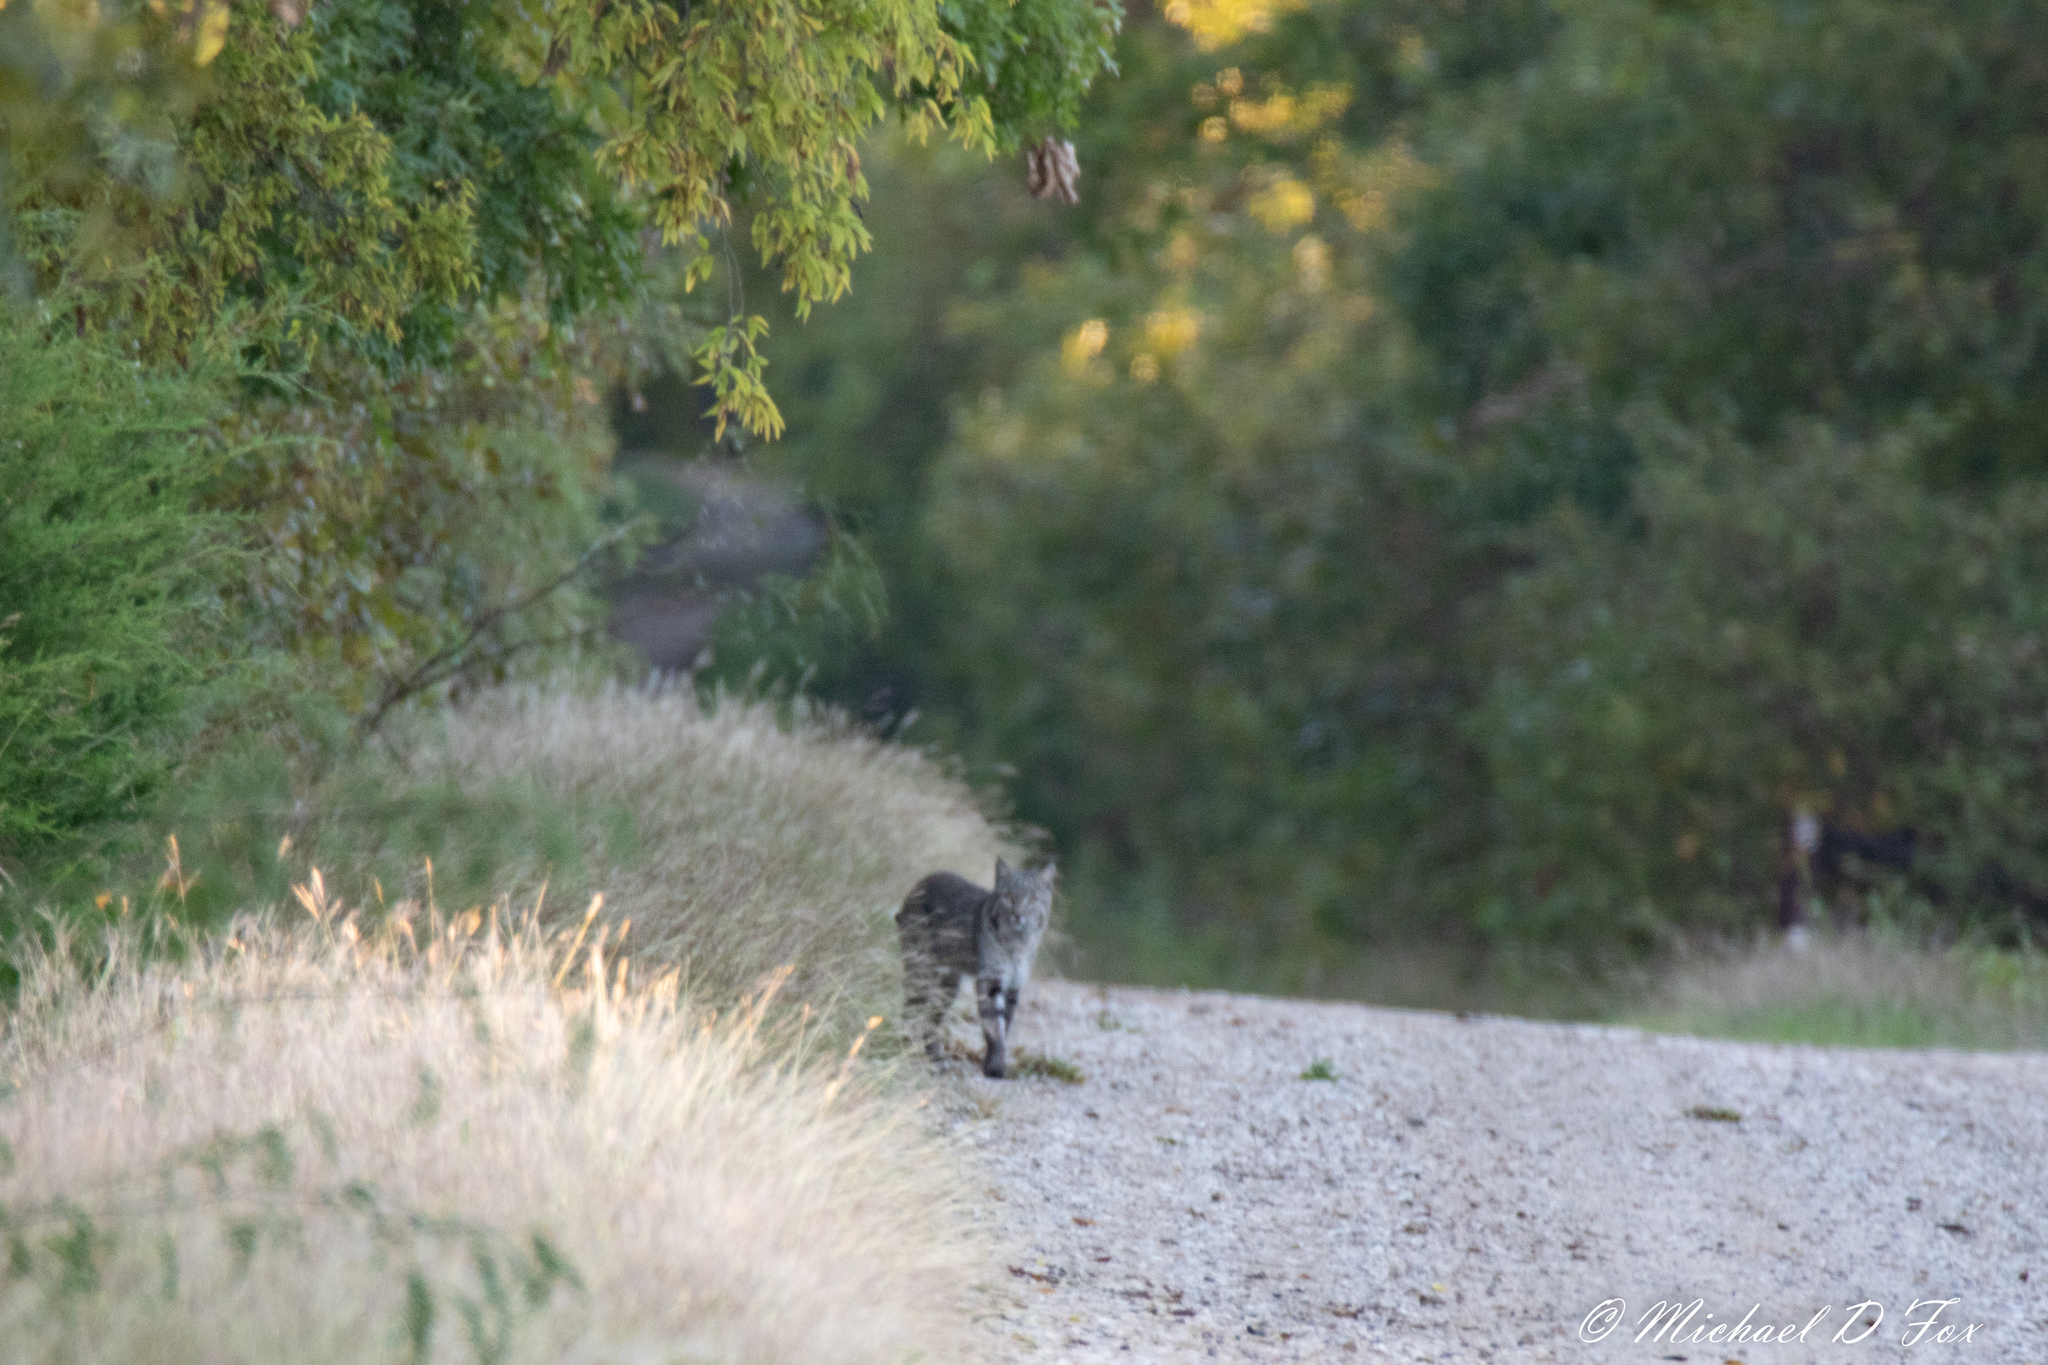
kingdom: Animalia
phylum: Chordata
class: Mammalia
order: Carnivora
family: Felidae
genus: Lynx
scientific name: Lynx rufus
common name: Bobcat
